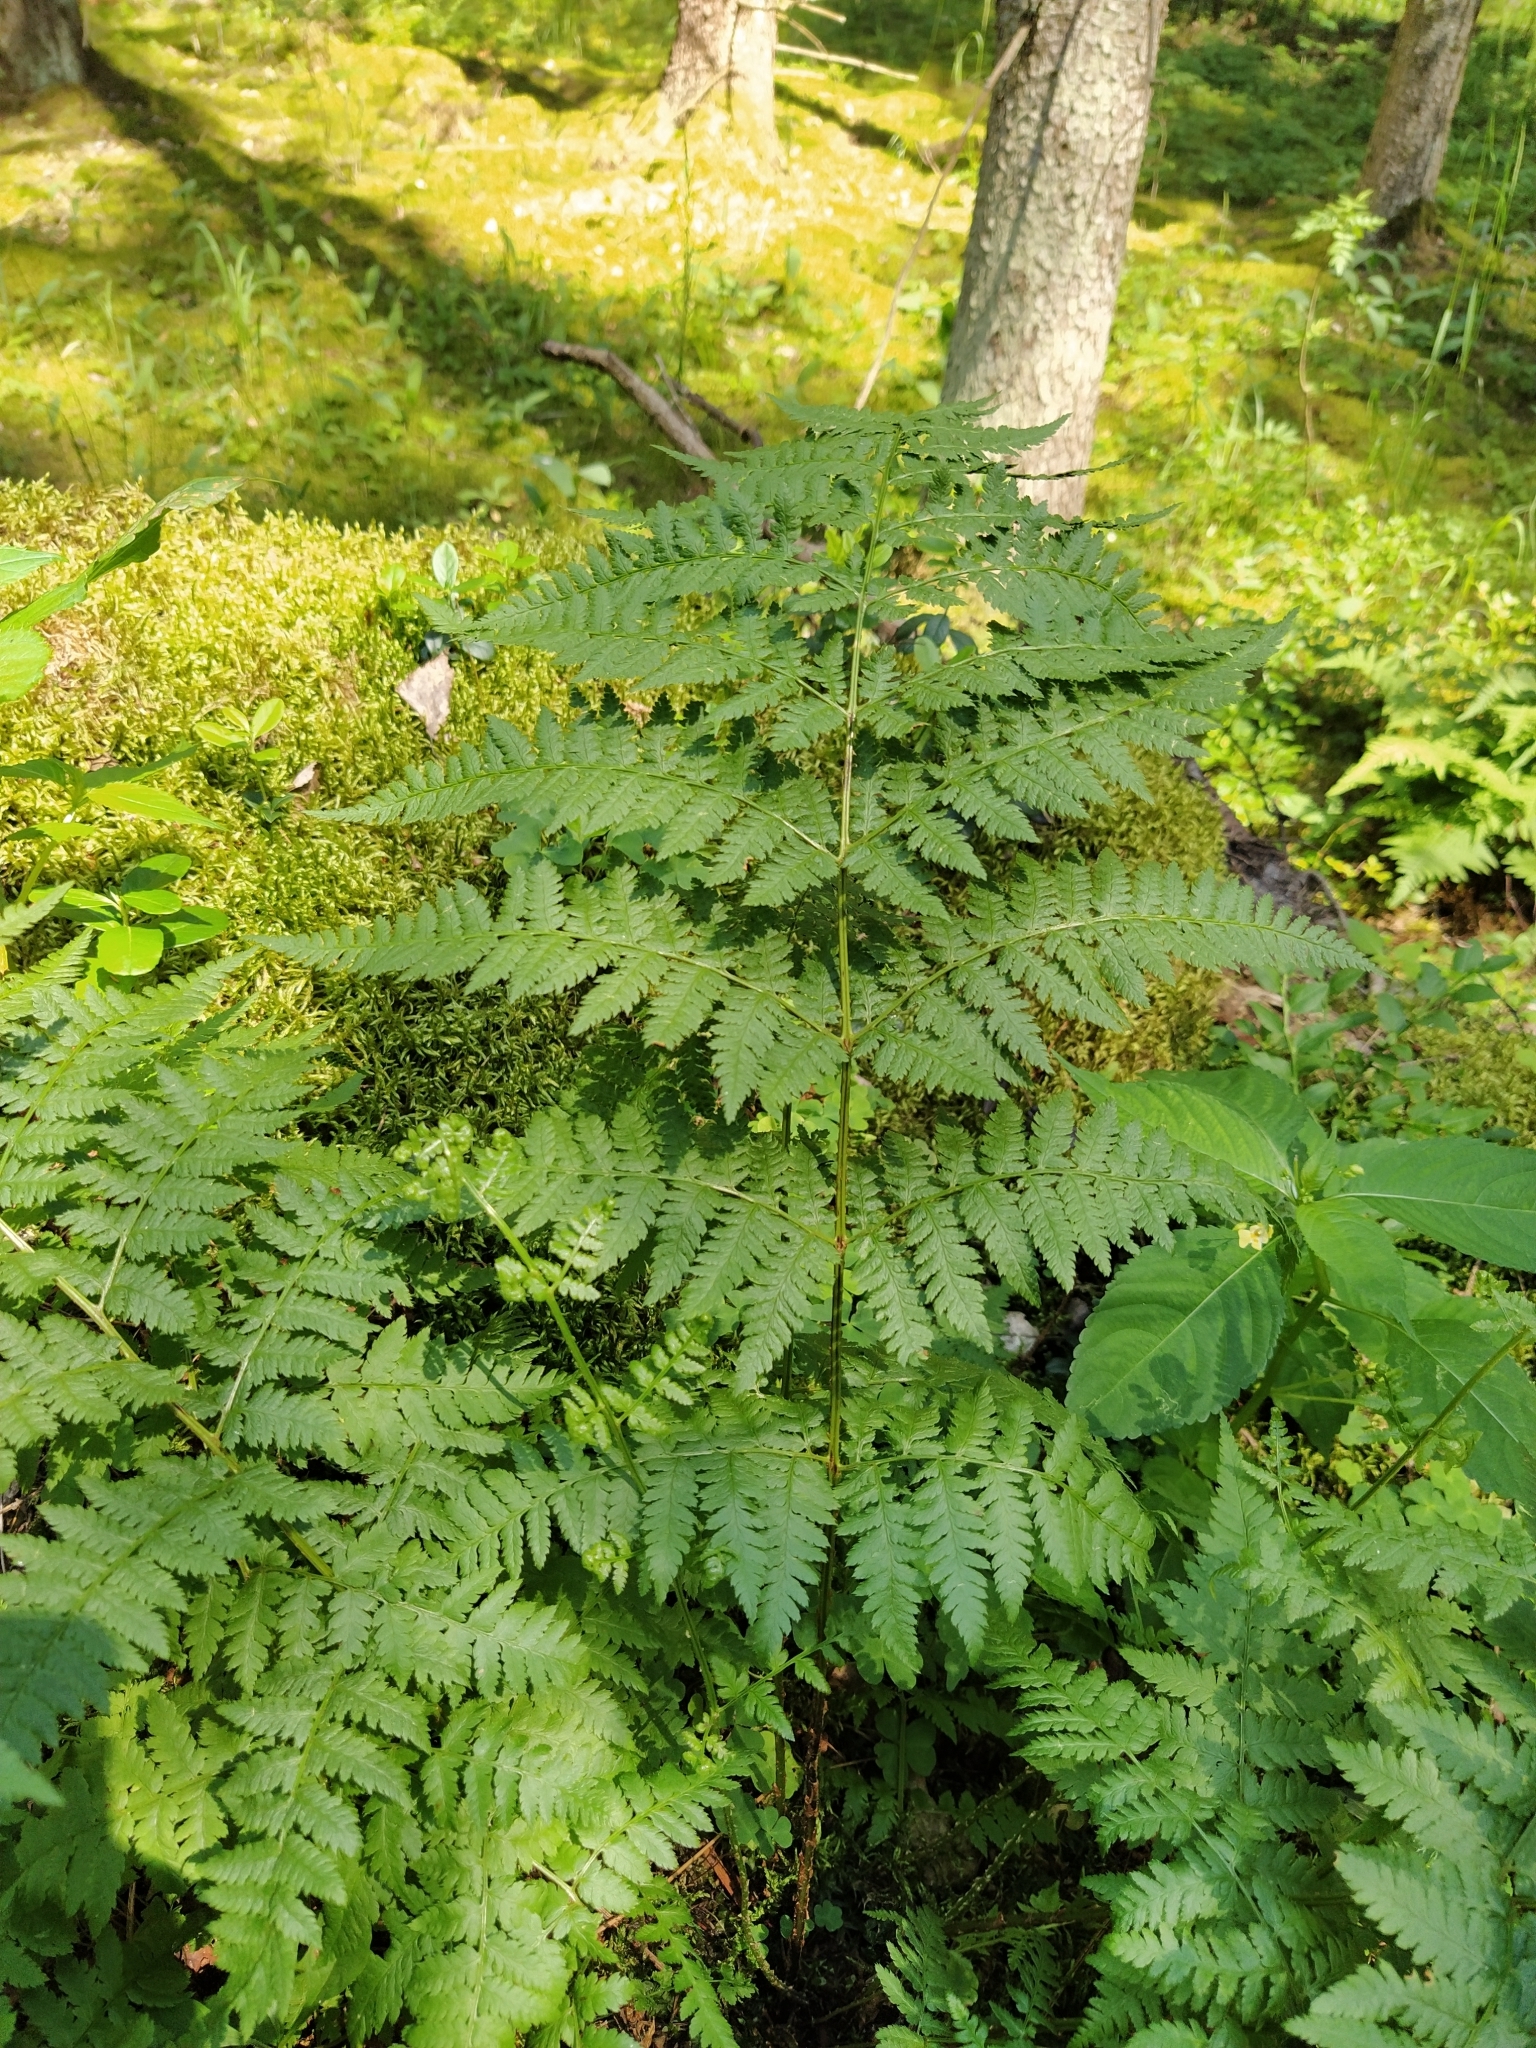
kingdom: Plantae
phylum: Tracheophyta
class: Polypodiopsida
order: Polypodiales
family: Dryopteridaceae
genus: Dryopteris
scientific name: Dryopteris carthusiana
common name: Narrow buckler-fern
